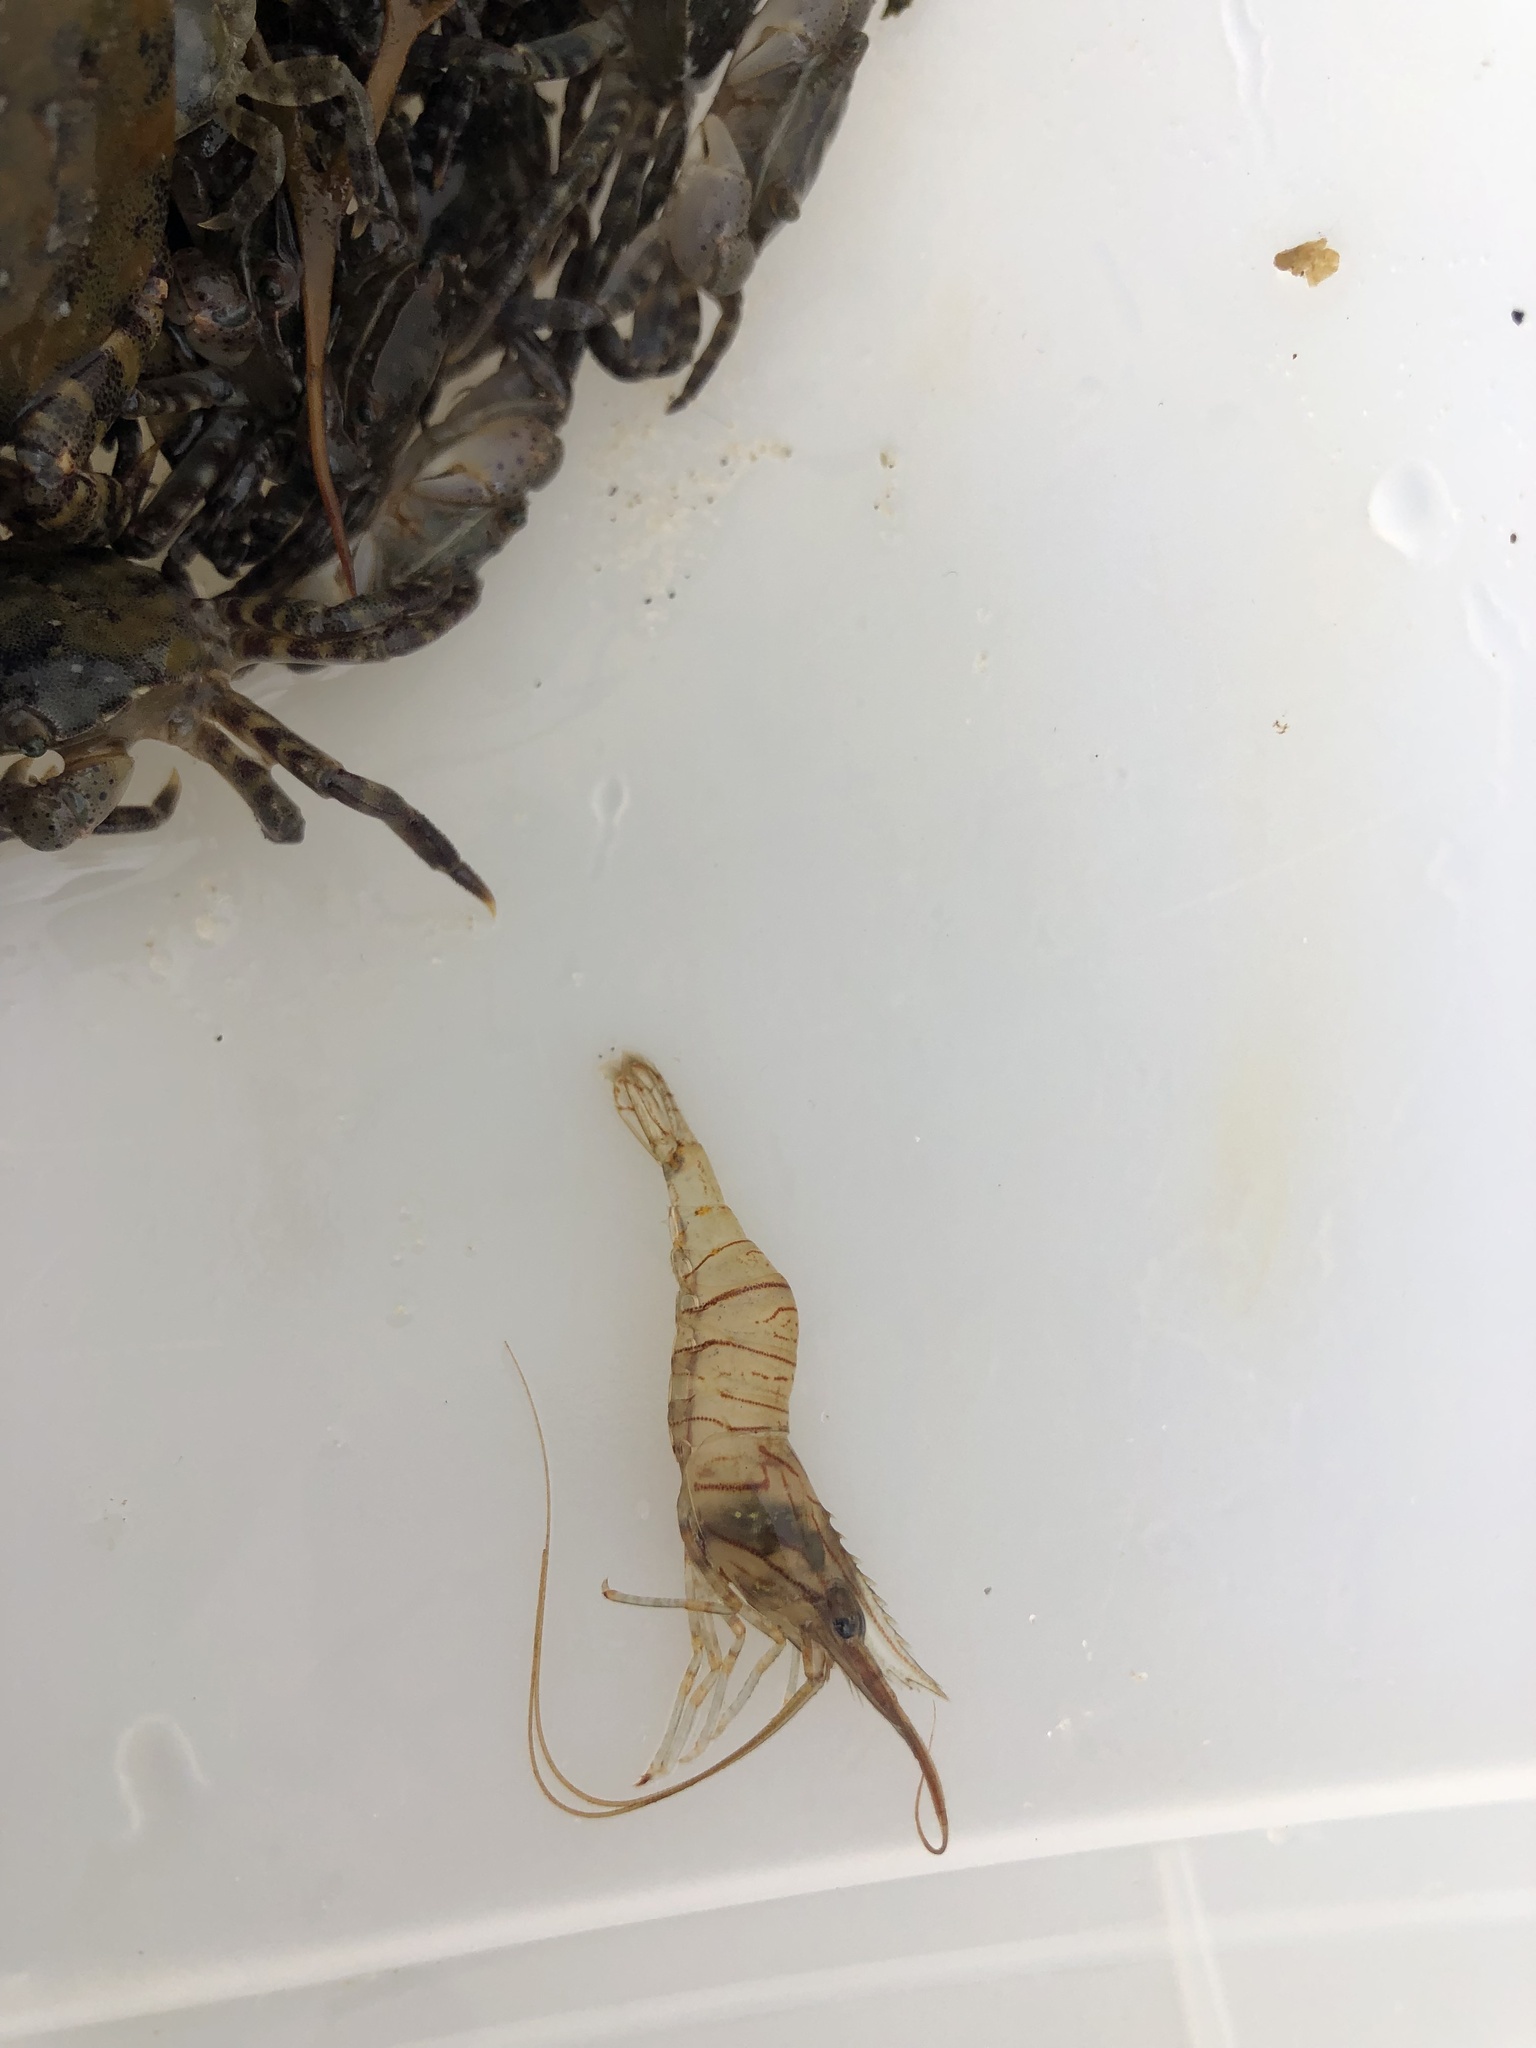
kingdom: Animalia
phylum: Arthropoda
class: Malacostraca
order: Decapoda
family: Palaemonidae
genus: Palaemon
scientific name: Palaemon elegans
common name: Grass prawm
